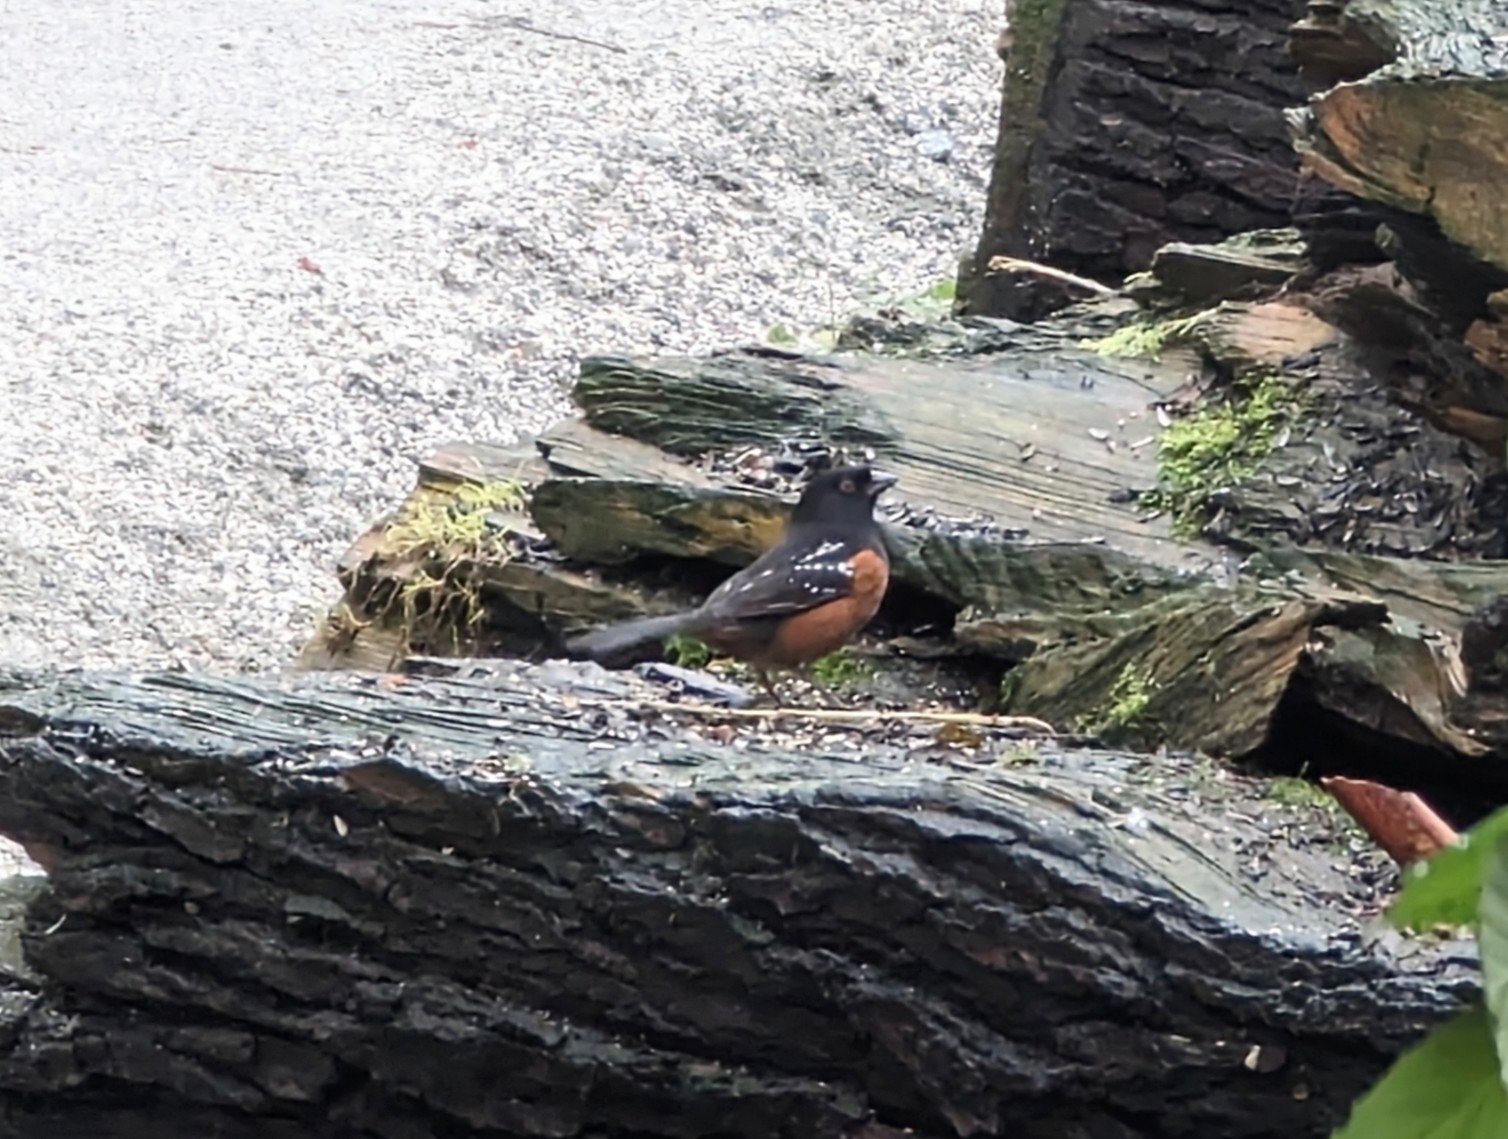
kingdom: Animalia
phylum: Chordata
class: Aves
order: Passeriformes
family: Passerellidae
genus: Pipilo
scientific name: Pipilo maculatus
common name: Spotted towhee
